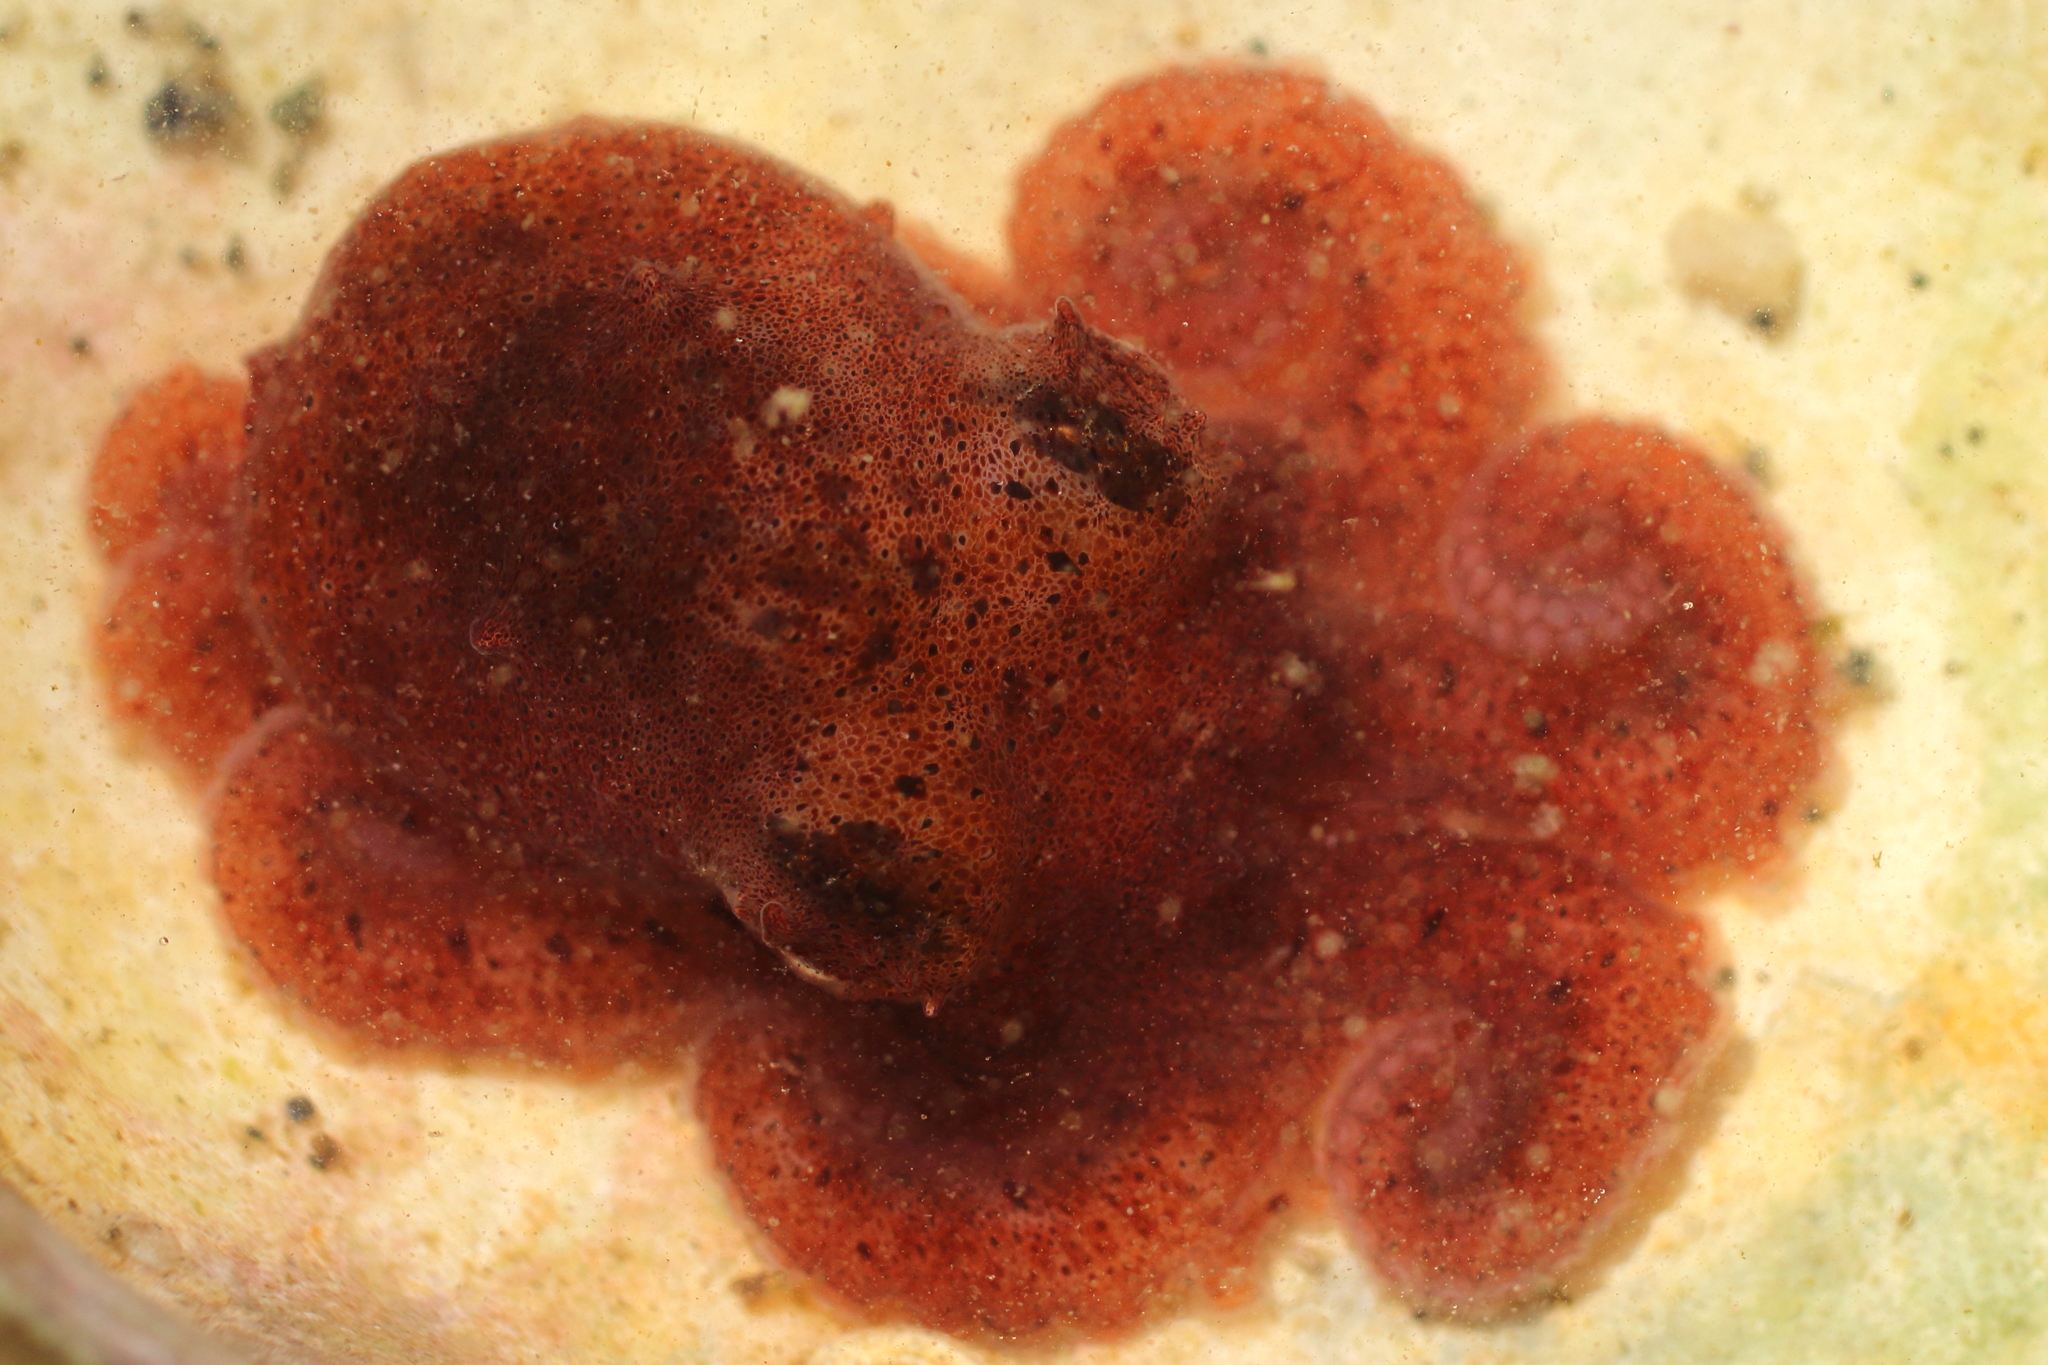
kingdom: Animalia
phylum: Mollusca
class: Cephalopoda
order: Octopoda
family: Enteroctopodidae
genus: Enteroctopus
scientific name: Enteroctopus dofleini
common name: Giant north pacific octopus
